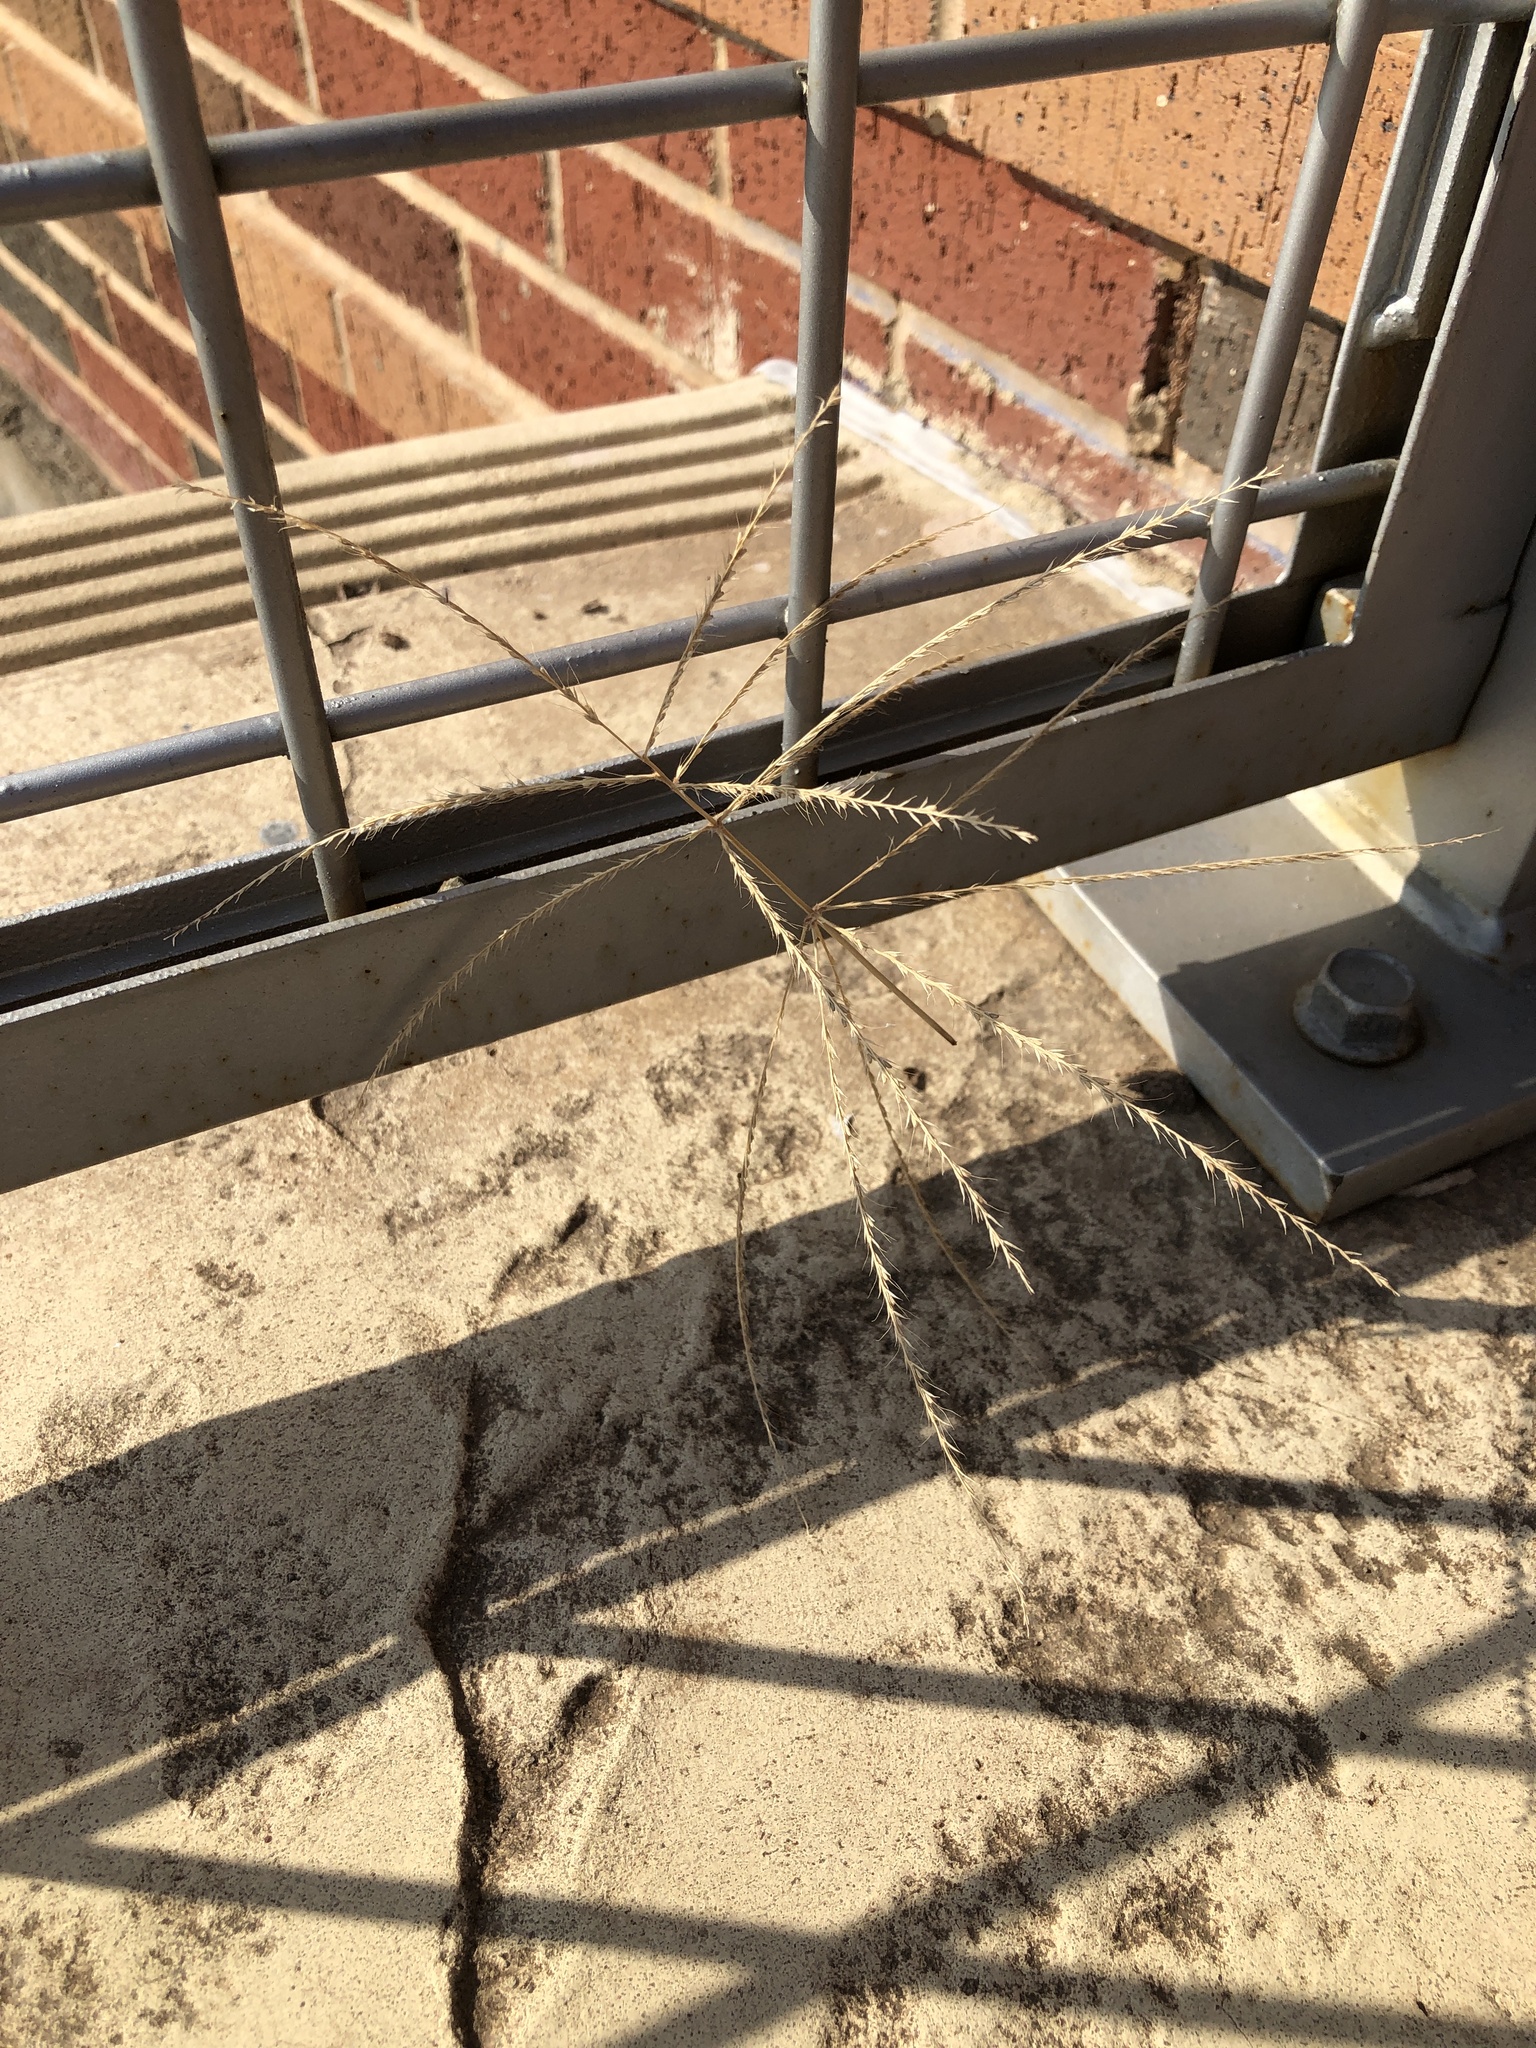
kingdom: Plantae
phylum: Tracheophyta
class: Liliopsida
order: Poales
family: Poaceae
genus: Chloris
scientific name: Chloris verticillata
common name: Tumble windmill grass
